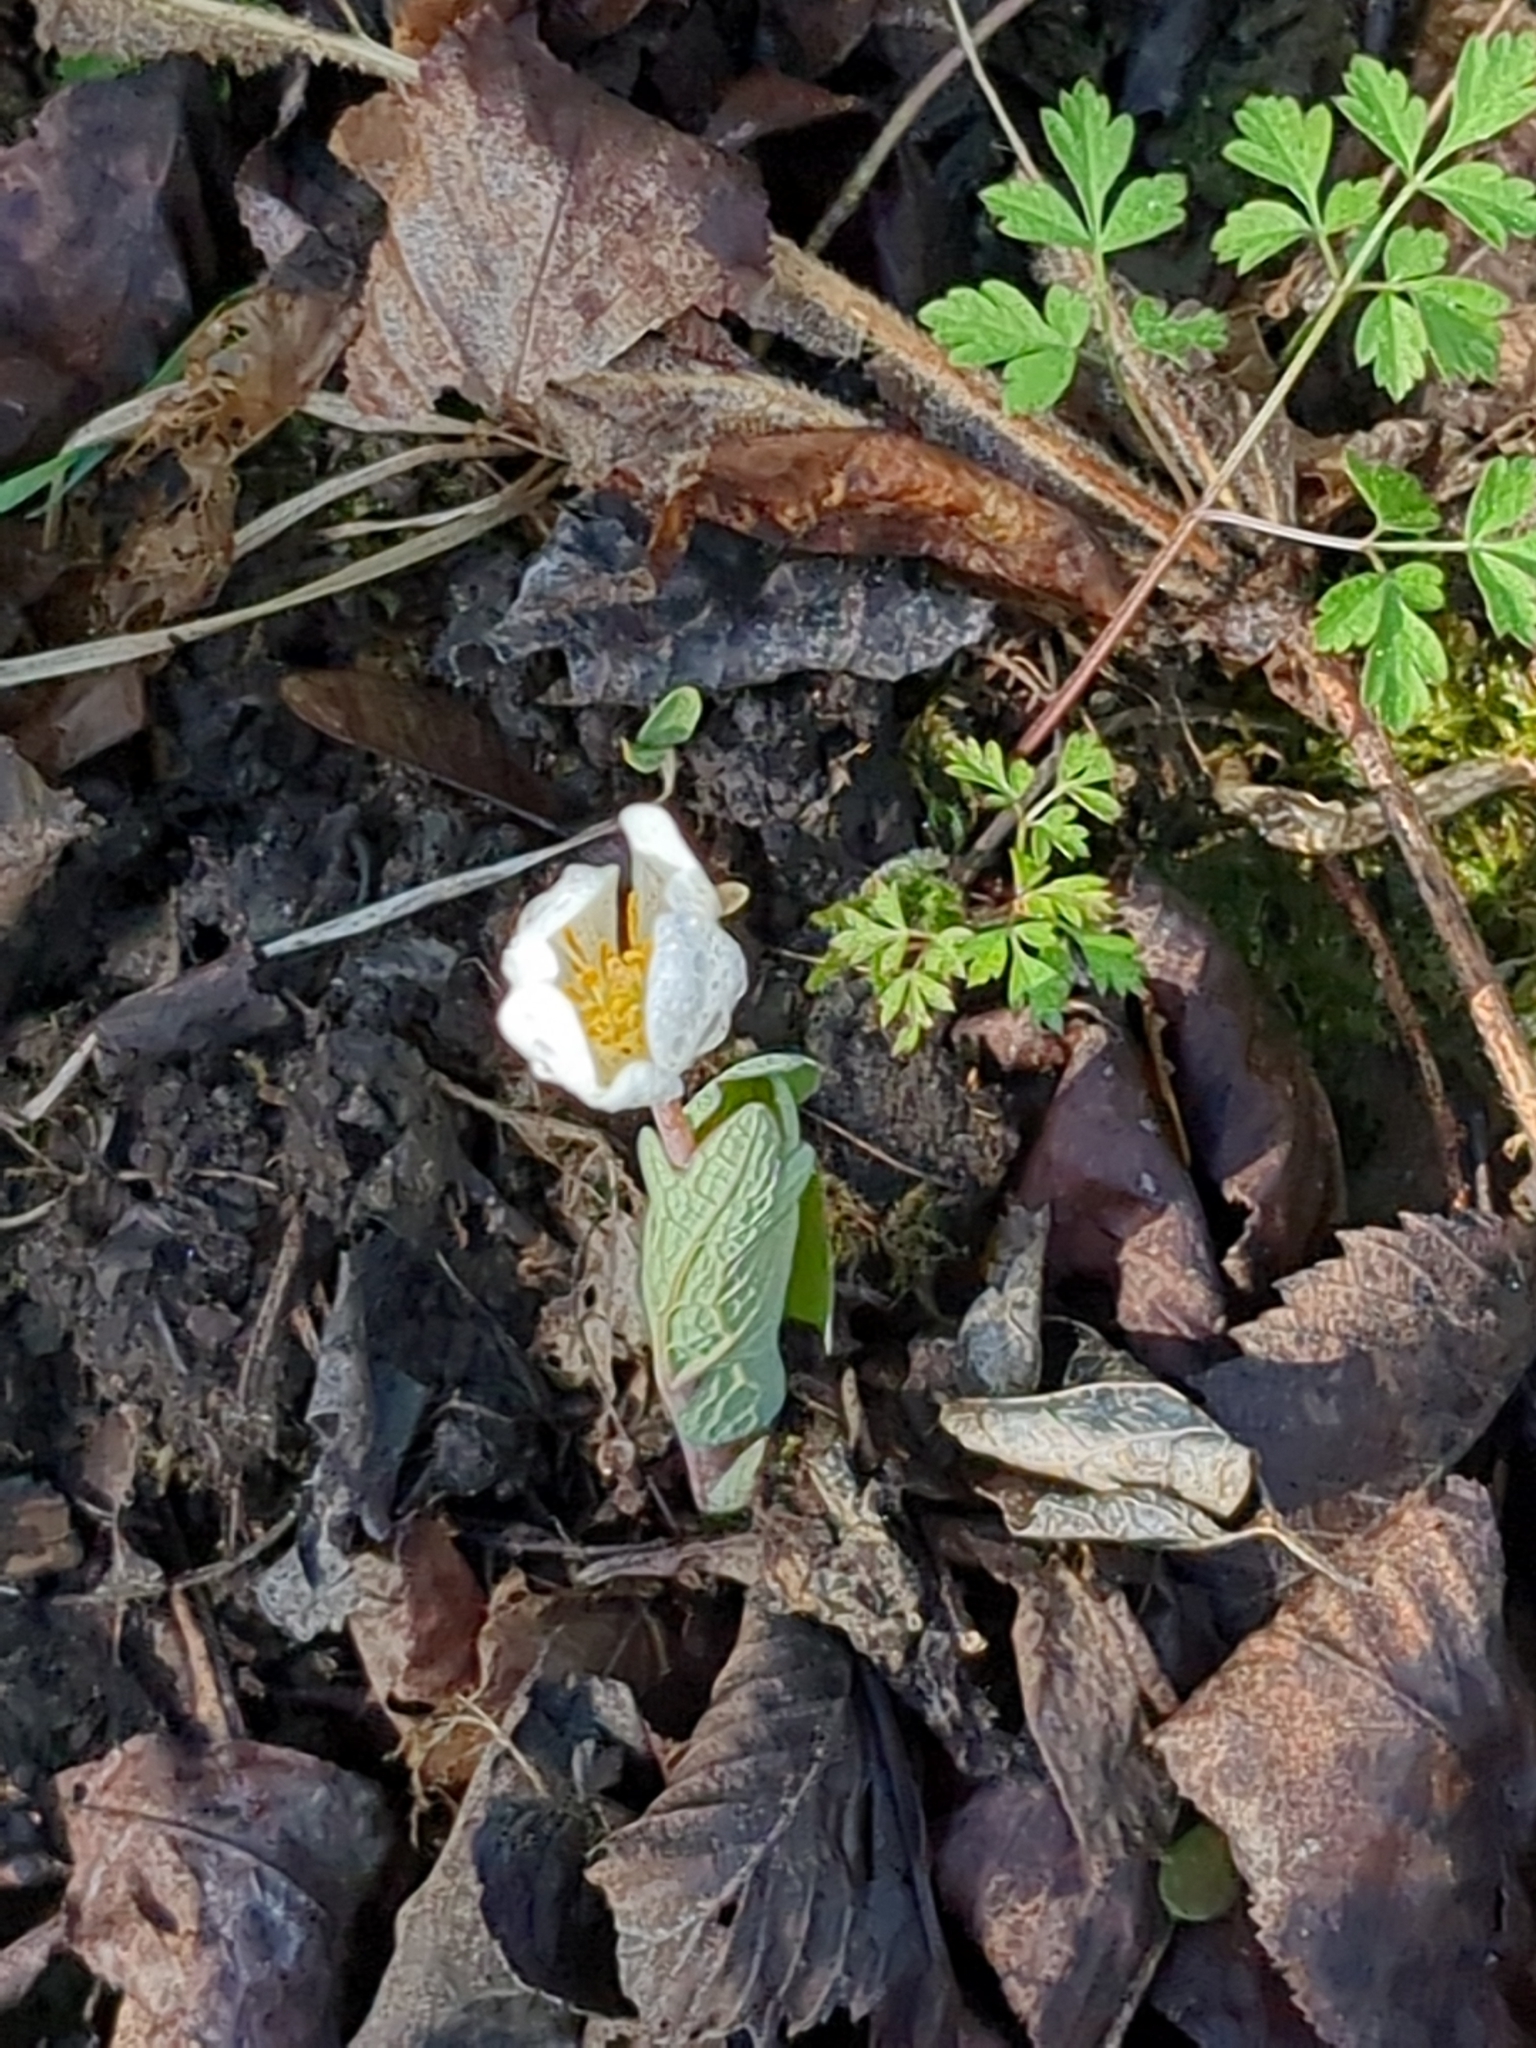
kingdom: Plantae
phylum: Tracheophyta
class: Magnoliopsida
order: Ranunculales
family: Papaveraceae
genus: Sanguinaria
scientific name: Sanguinaria canadensis
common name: Bloodroot
